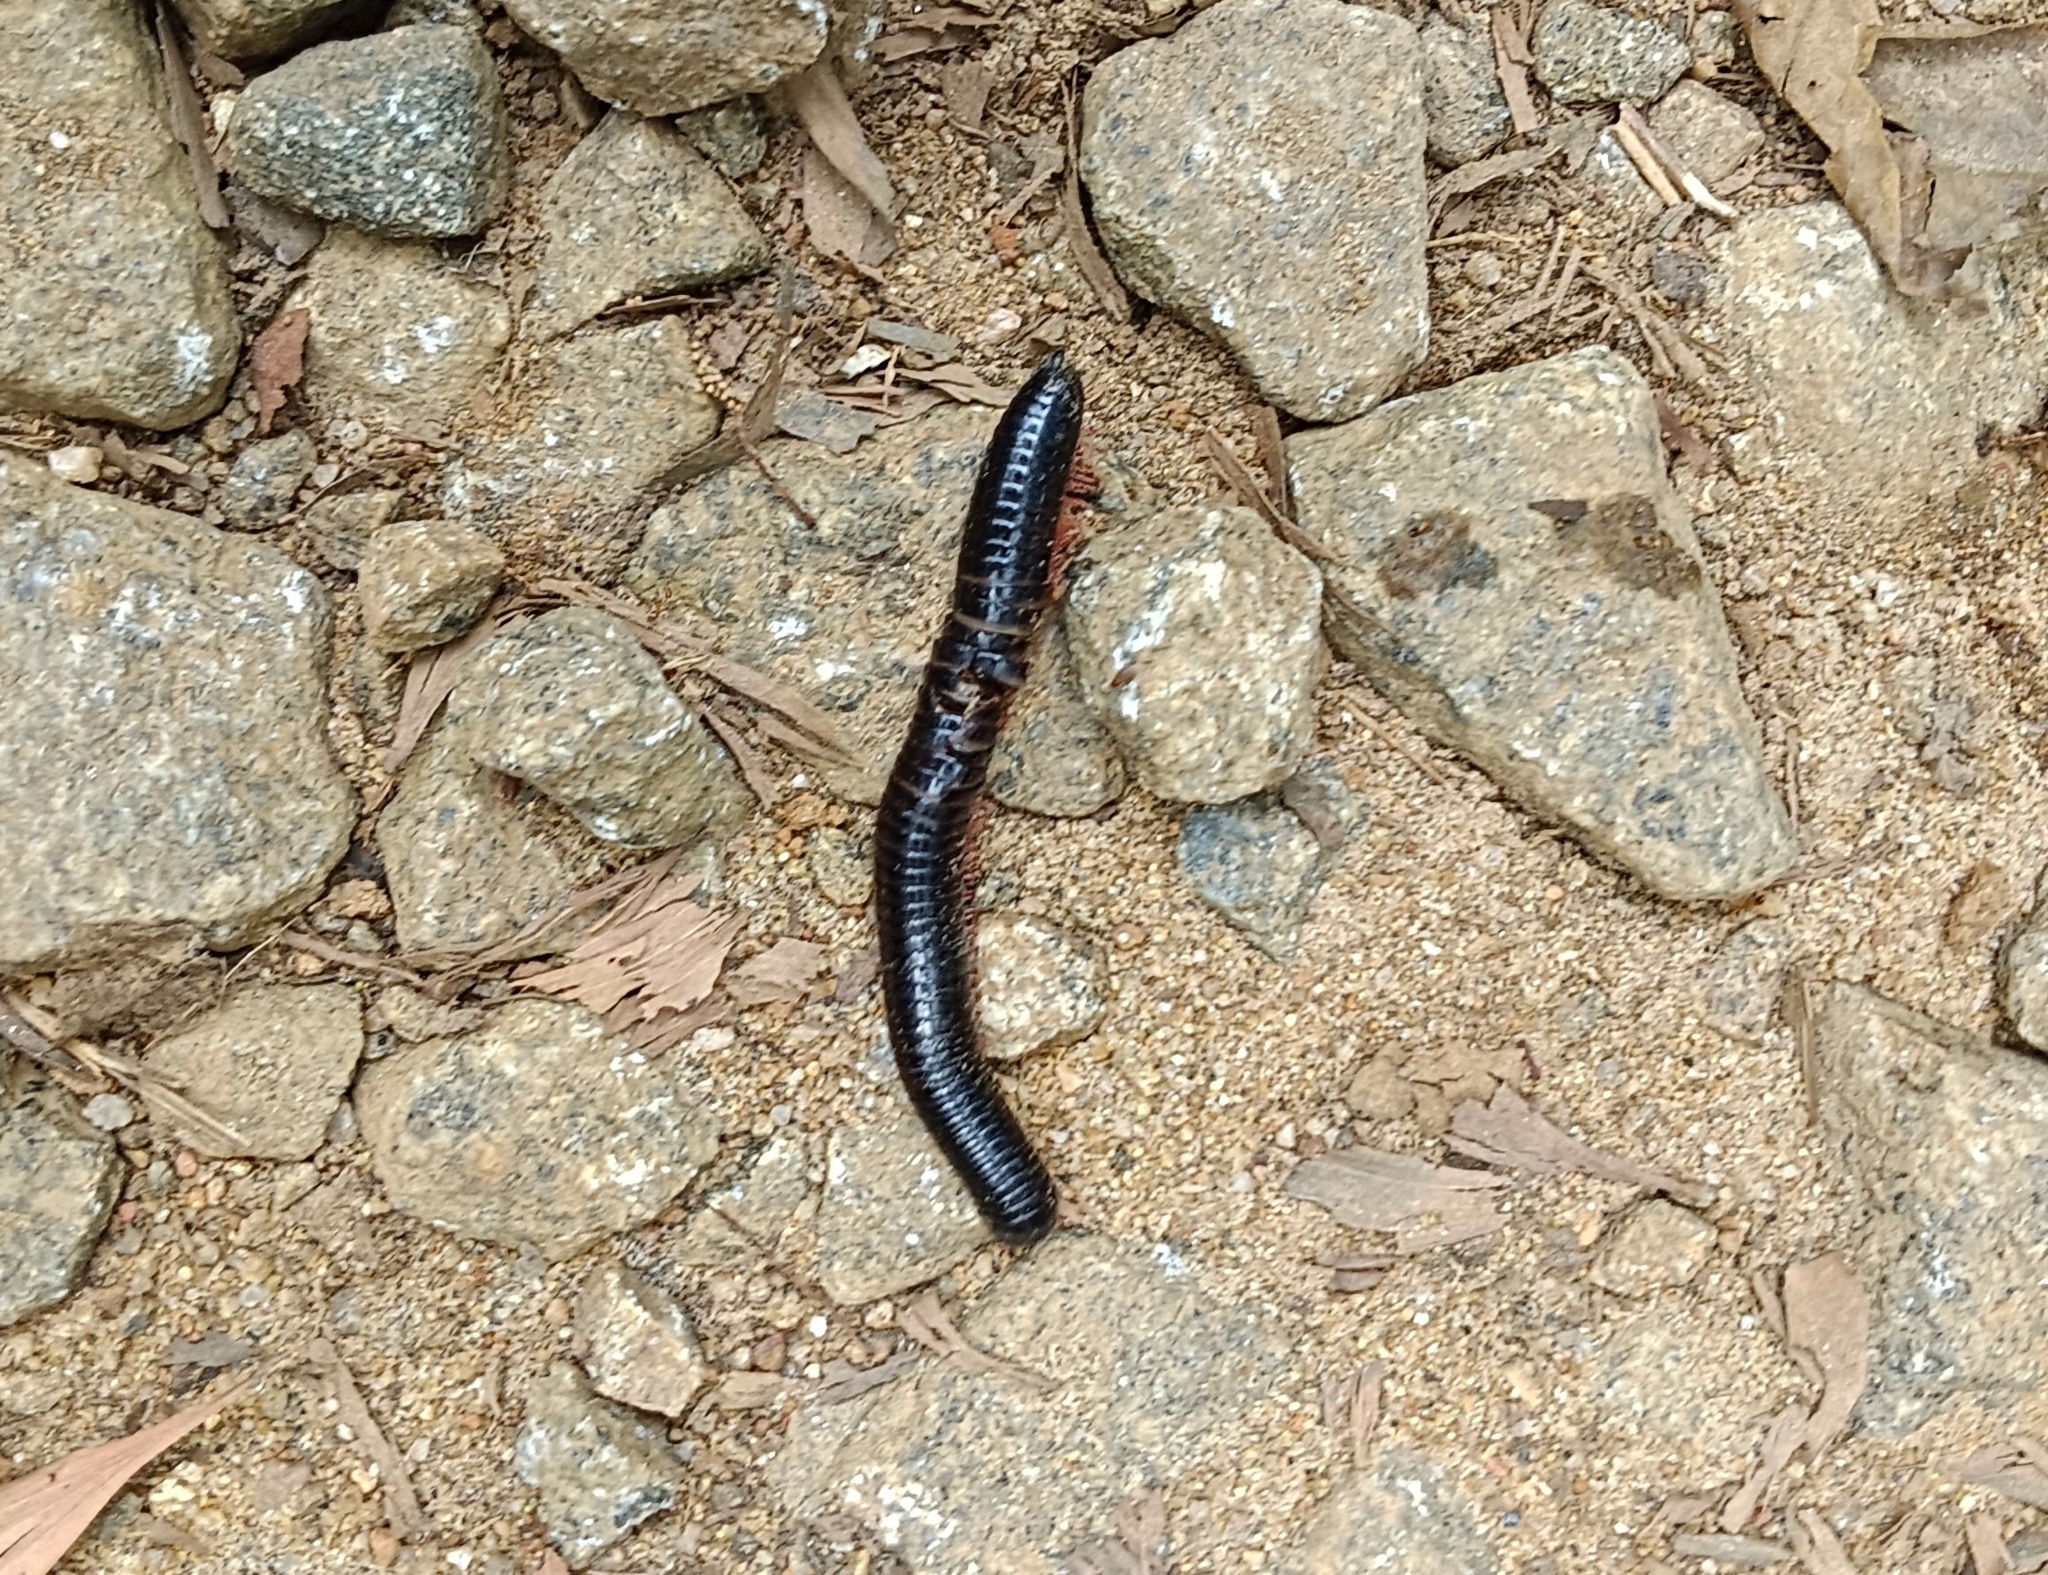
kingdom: Animalia
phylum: Arthropoda
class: Diplopoda
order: Spirostreptida
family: Harpagophoridae
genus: Phyllogonostreptus
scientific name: Phyllogonostreptus nigrolabiatus
